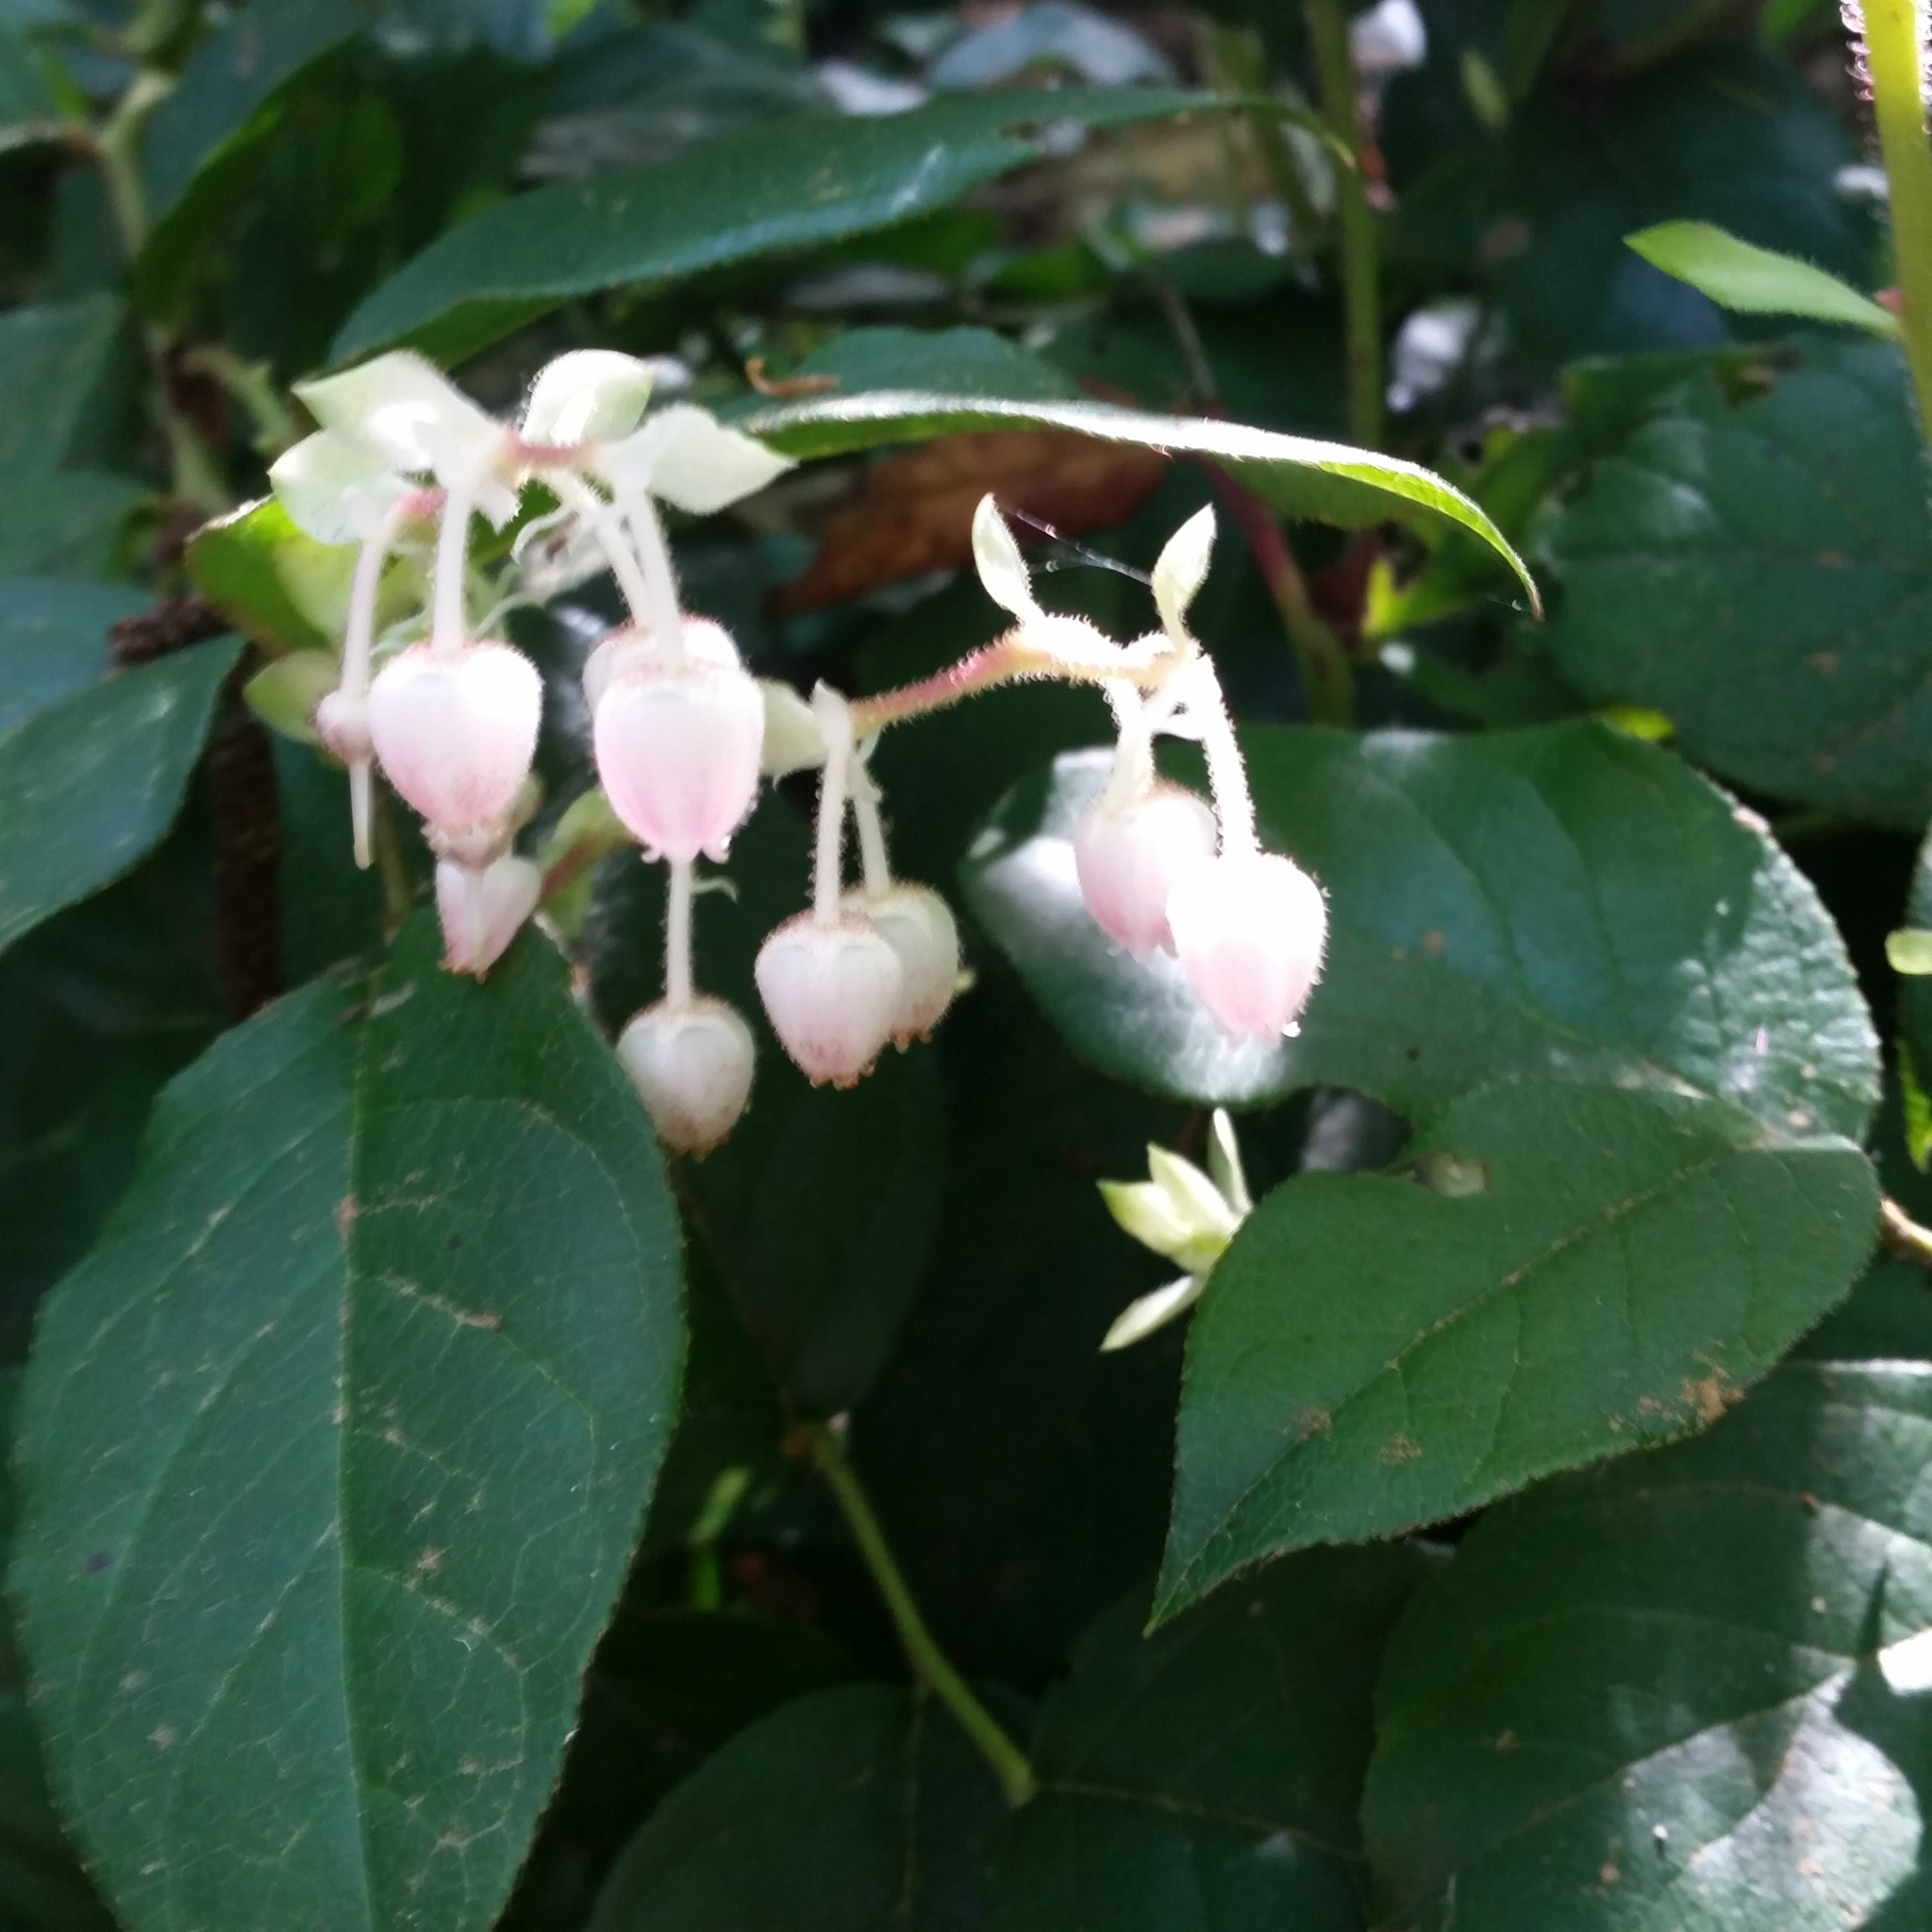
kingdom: Plantae
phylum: Tracheophyta
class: Magnoliopsida
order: Ericales
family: Ericaceae
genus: Gaultheria
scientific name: Gaultheria shallon
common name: Shallon
